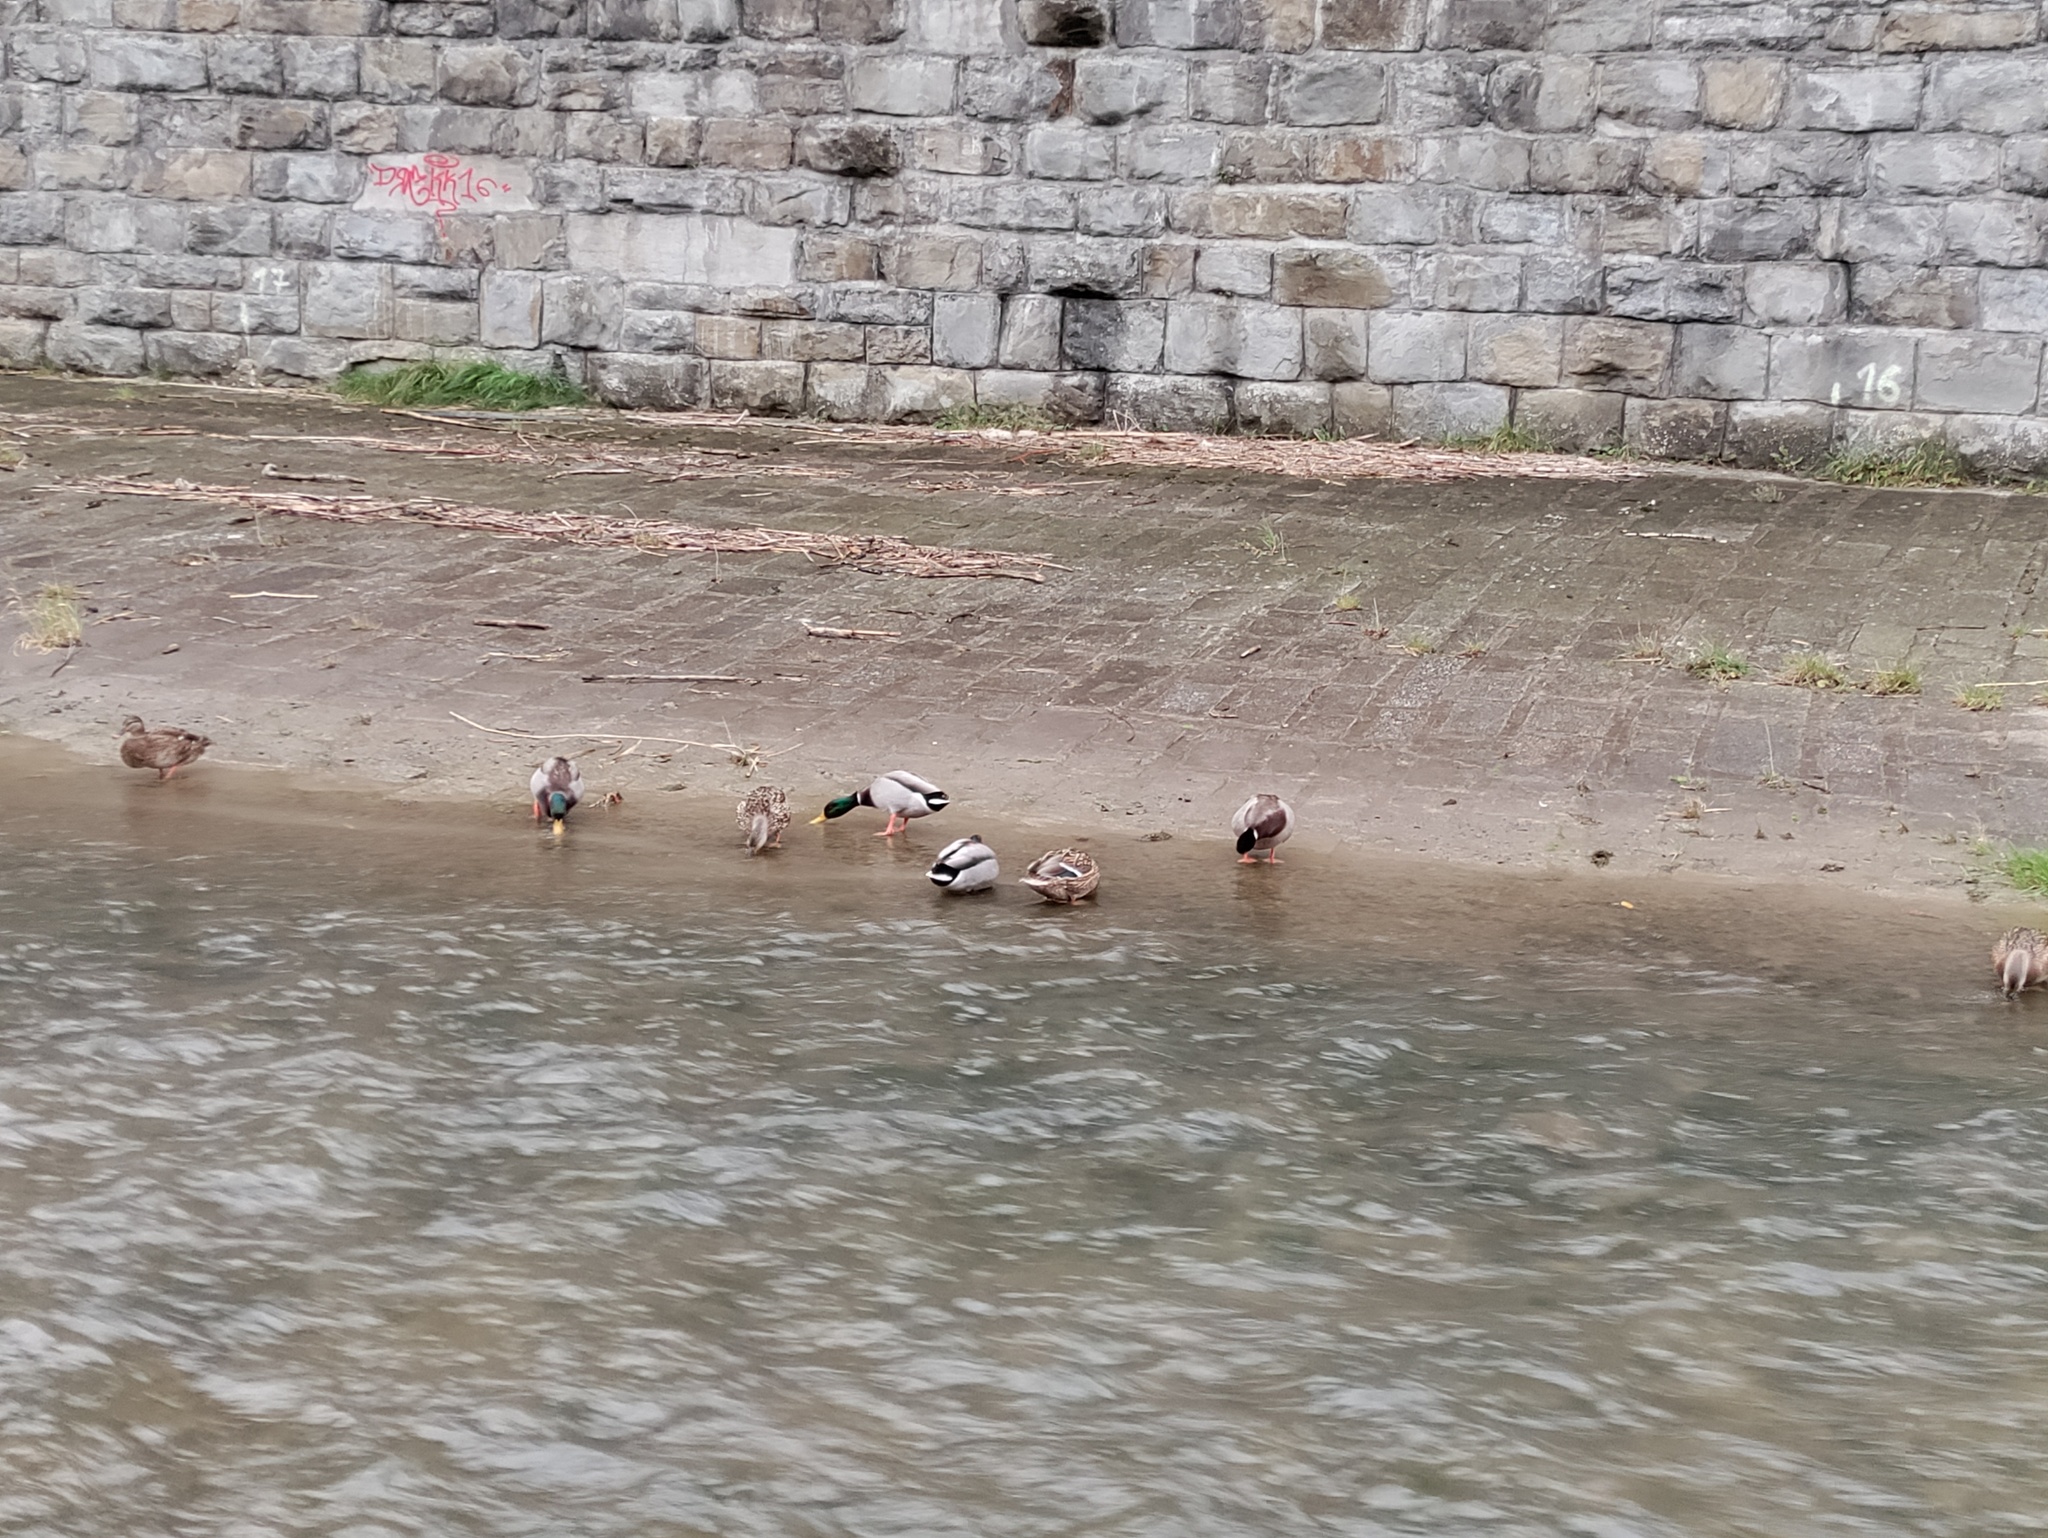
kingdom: Animalia
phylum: Chordata
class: Aves
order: Anseriformes
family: Anatidae
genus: Anas
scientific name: Anas platyrhynchos
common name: Mallard
